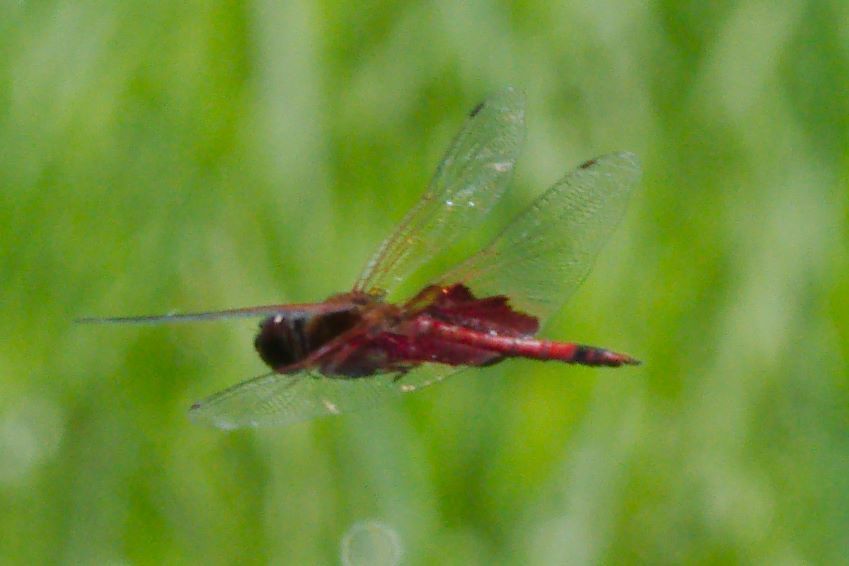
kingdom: Animalia
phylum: Arthropoda
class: Insecta
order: Odonata
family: Libellulidae
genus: Tramea
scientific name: Tramea carolina
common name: Carolina saddlebags
